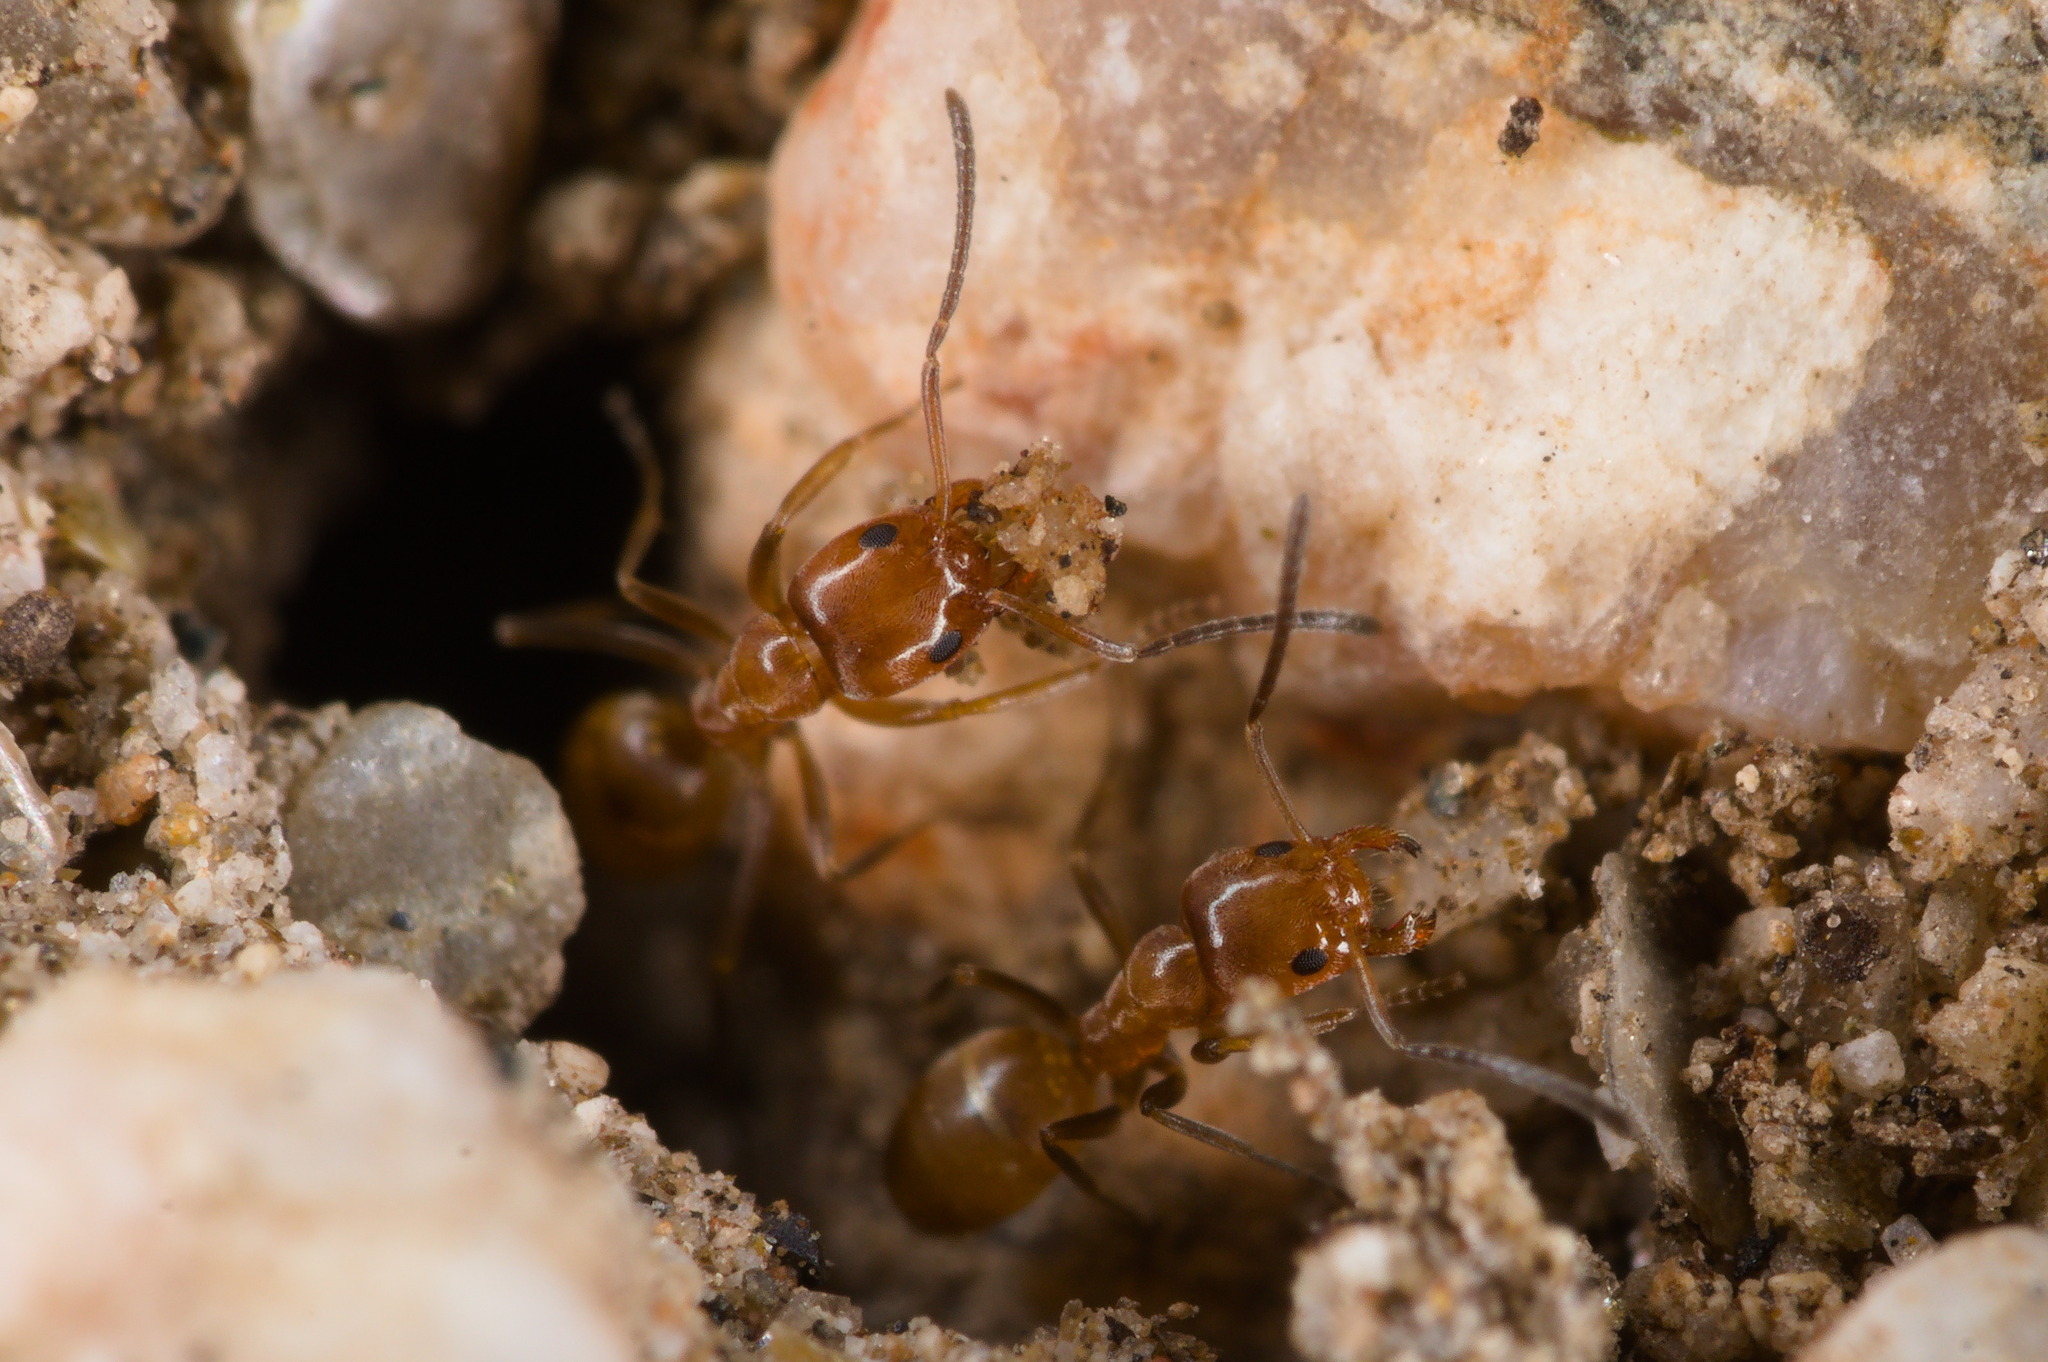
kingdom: Animalia
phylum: Arthropoda
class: Insecta
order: Hymenoptera
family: Formicidae
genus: Forelius
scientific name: Forelius pruinosus
